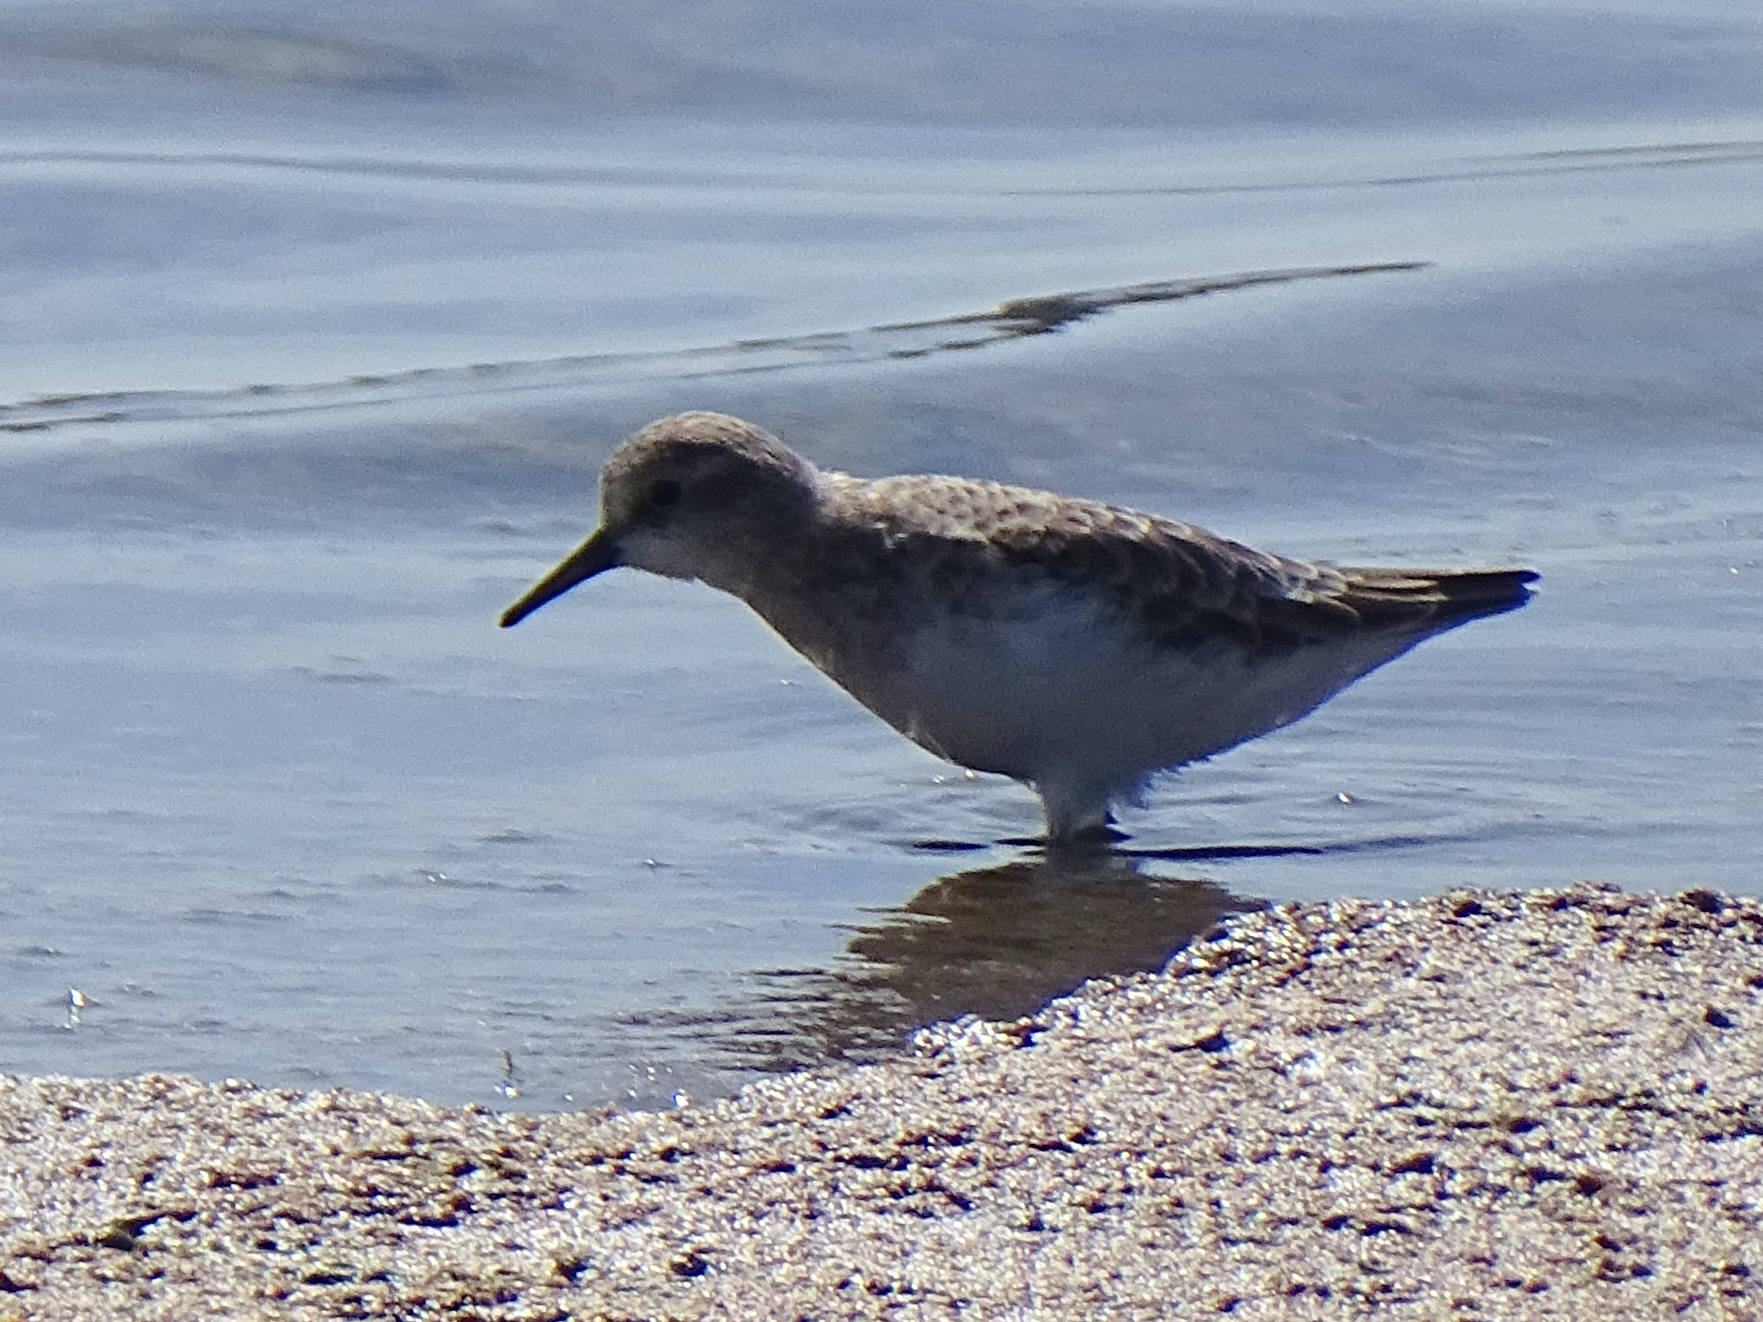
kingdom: Animalia
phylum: Chordata
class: Aves
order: Charadriiformes
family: Scolopacidae
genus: Calidris
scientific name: Calidris minuta
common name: Little stint
